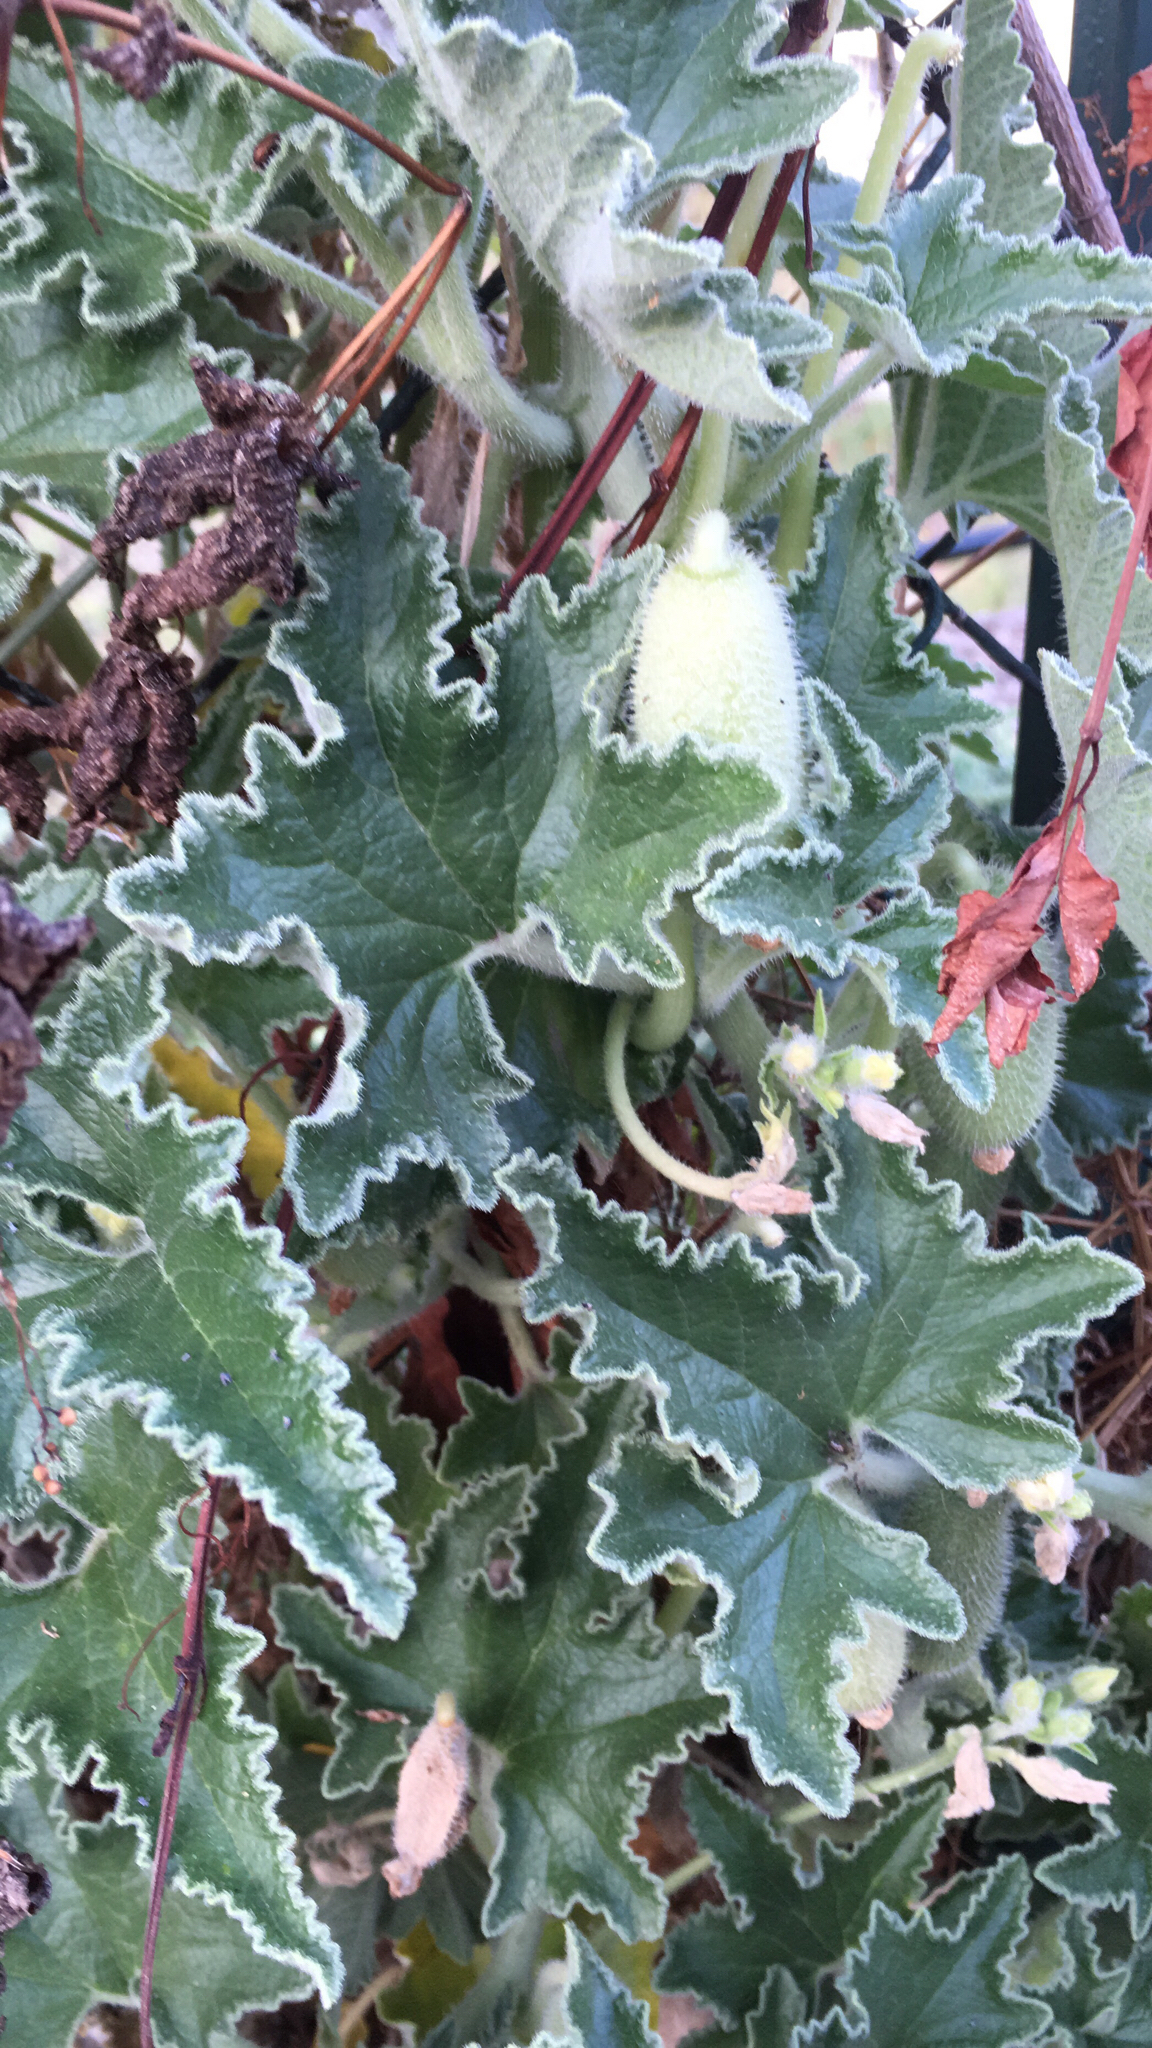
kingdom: Plantae
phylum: Tracheophyta
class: Magnoliopsida
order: Cucurbitales
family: Cucurbitaceae
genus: Ecballium
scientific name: Ecballium elaterium
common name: Squirting cucumber
